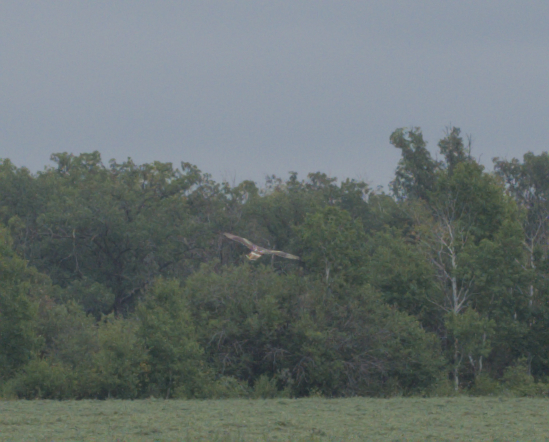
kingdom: Animalia
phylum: Chordata
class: Aves
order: Accipitriformes
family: Accipitridae
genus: Buteo
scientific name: Buteo jamaicensis
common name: Red-tailed hawk
